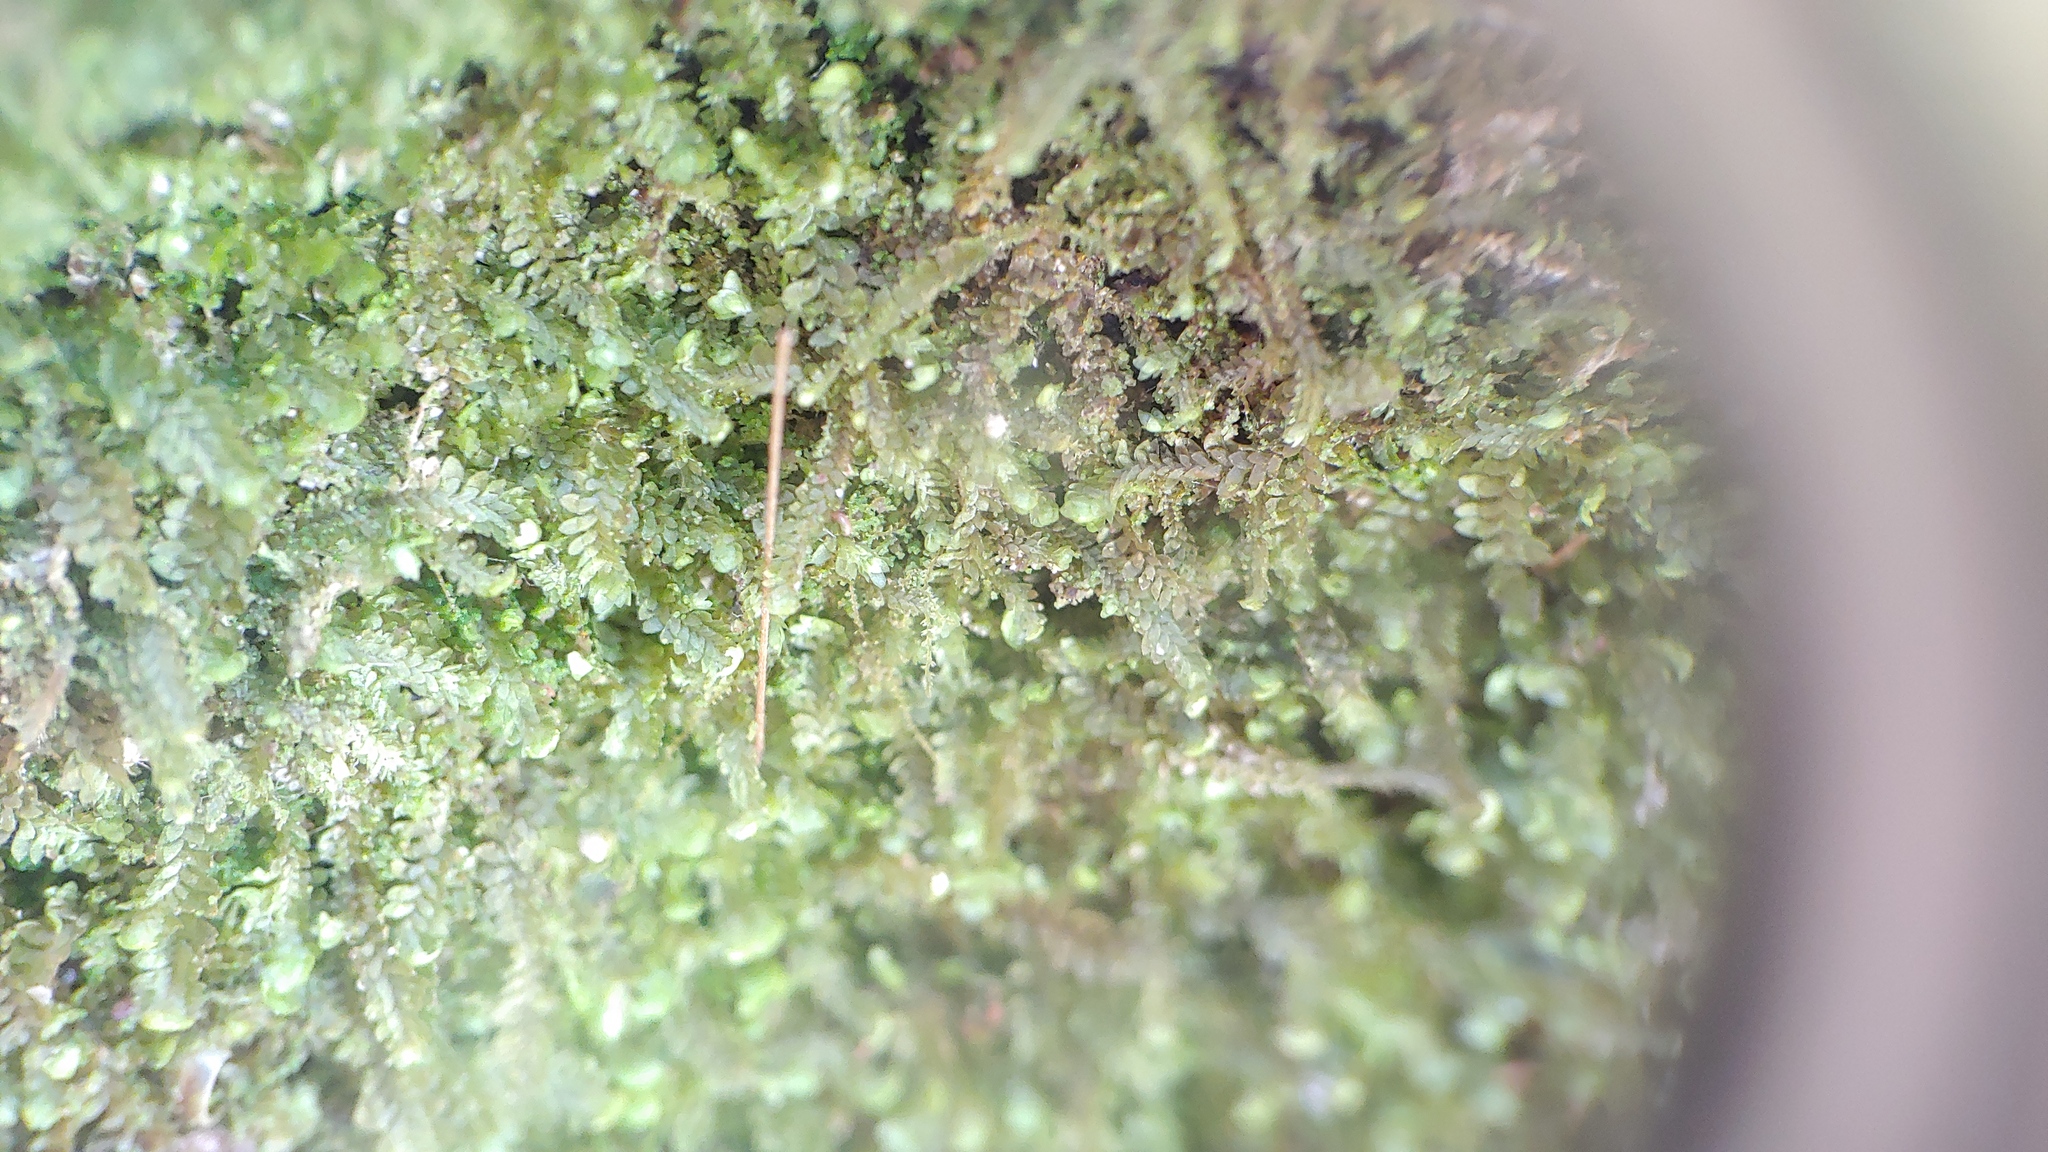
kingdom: Plantae
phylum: Marchantiophyta
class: Jungermanniopsida
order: Jungermanniales
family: Scapaniaceae
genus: Diplophyllum
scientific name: Diplophyllum apiculatum
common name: Sharp-pointed earwort
